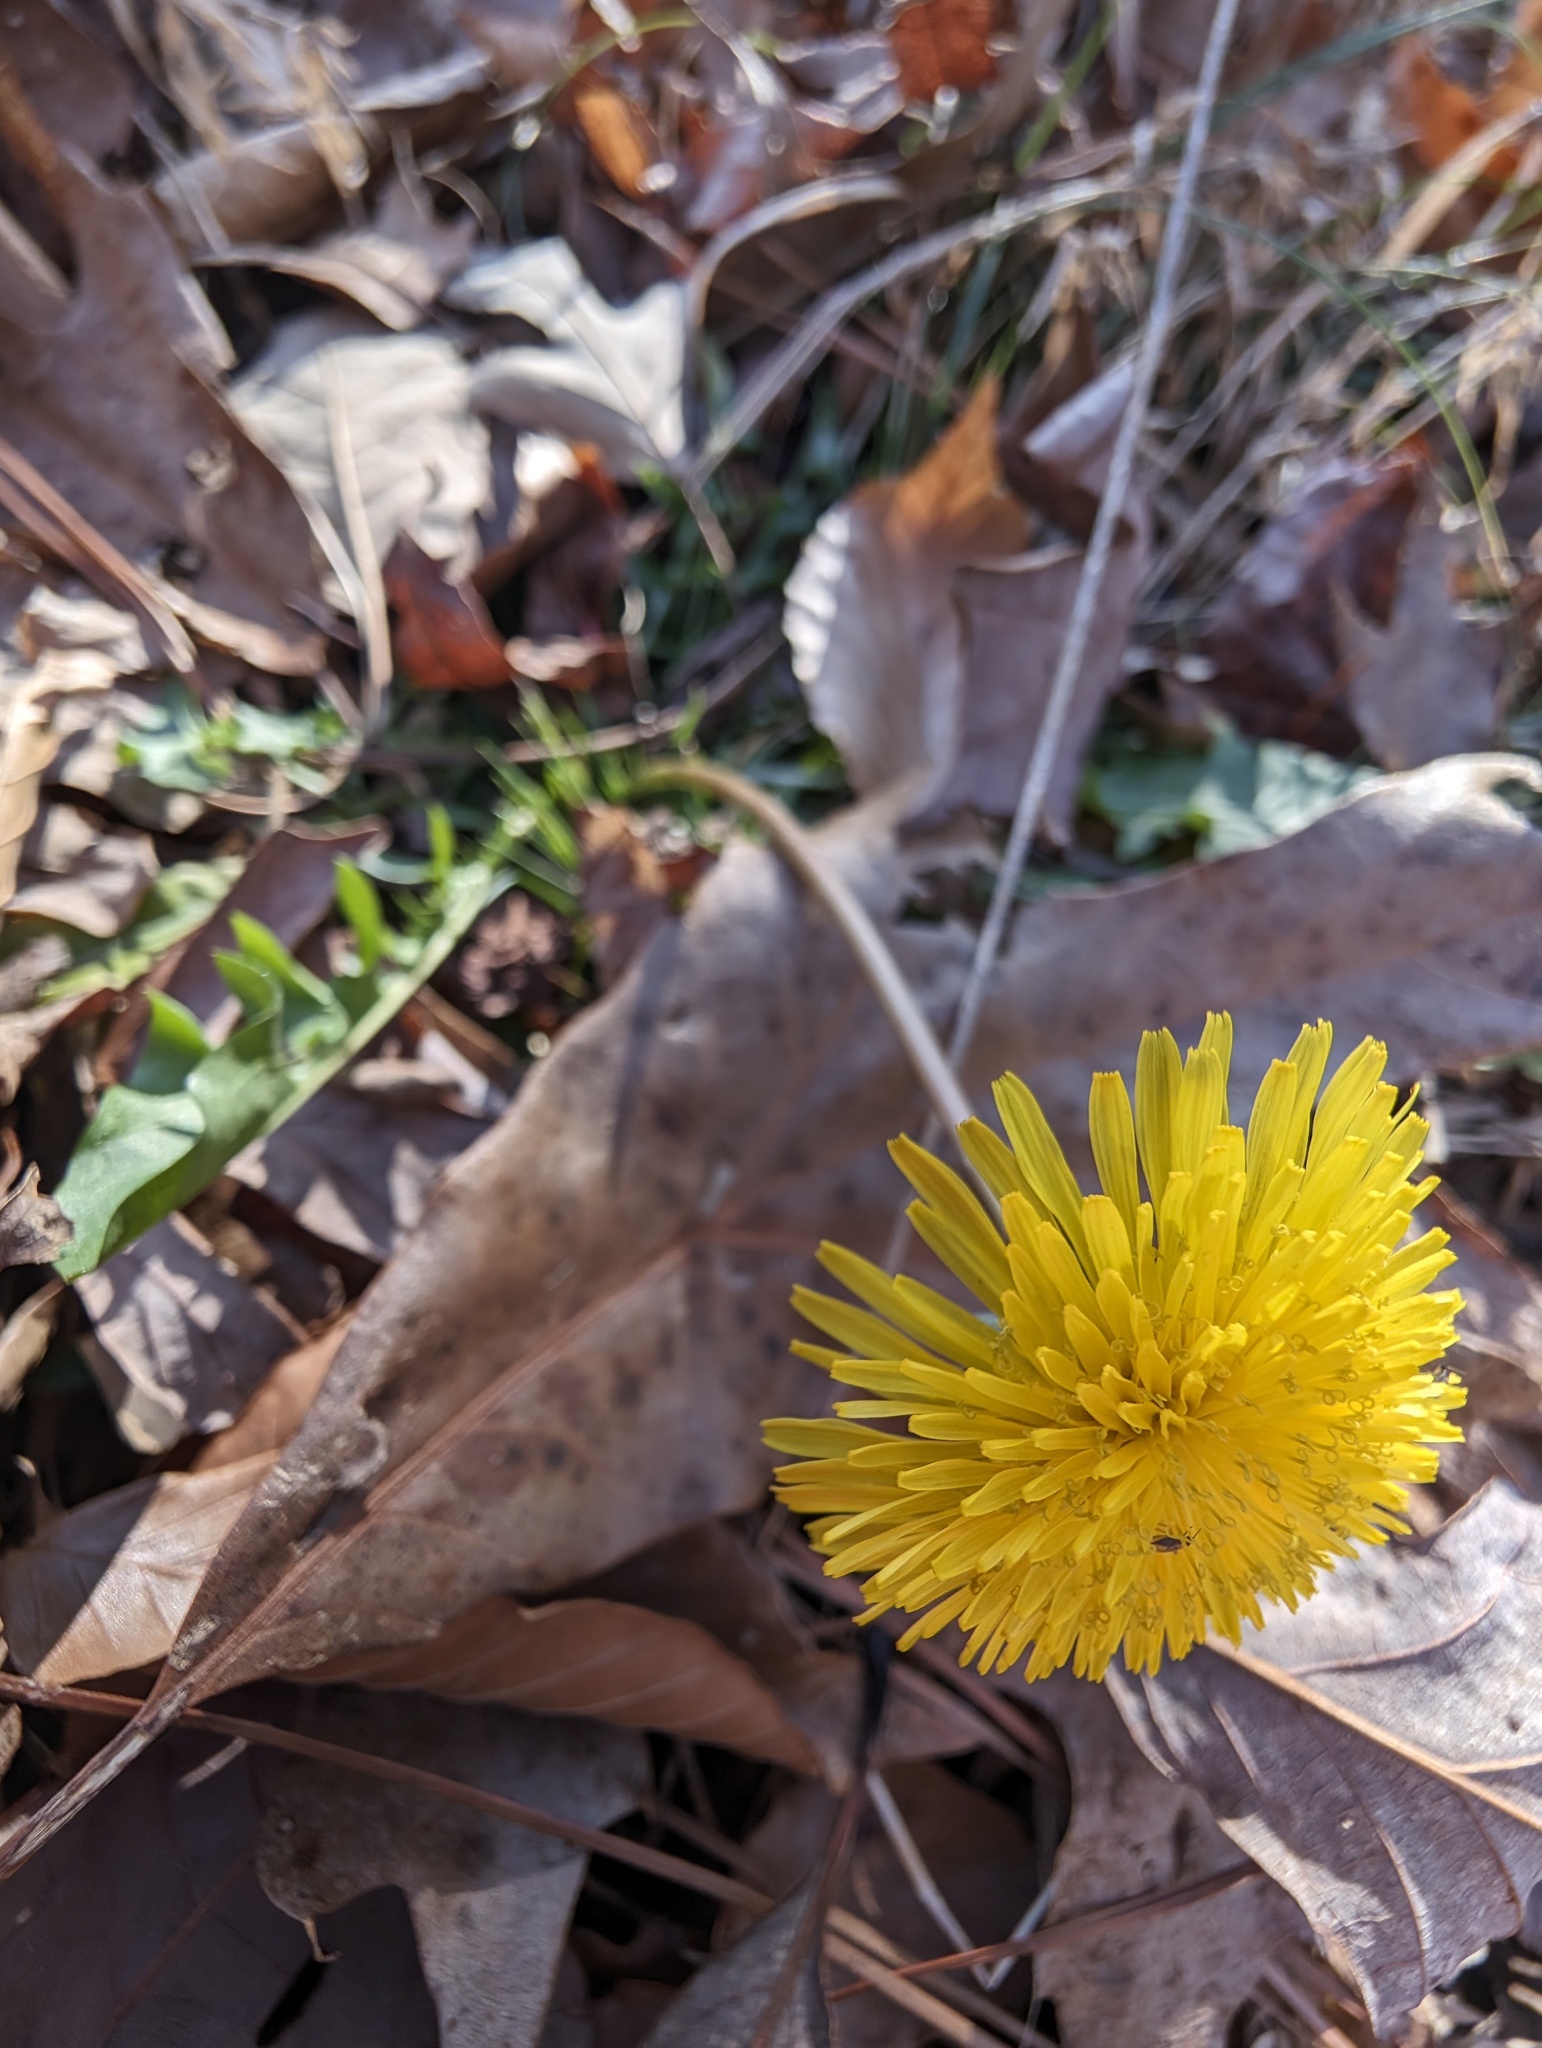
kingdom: Plantae
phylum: Tracheophyta
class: Magnoliopsida
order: Asterales
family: Asteraceae
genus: Taraxacum
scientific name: Taraxacum
